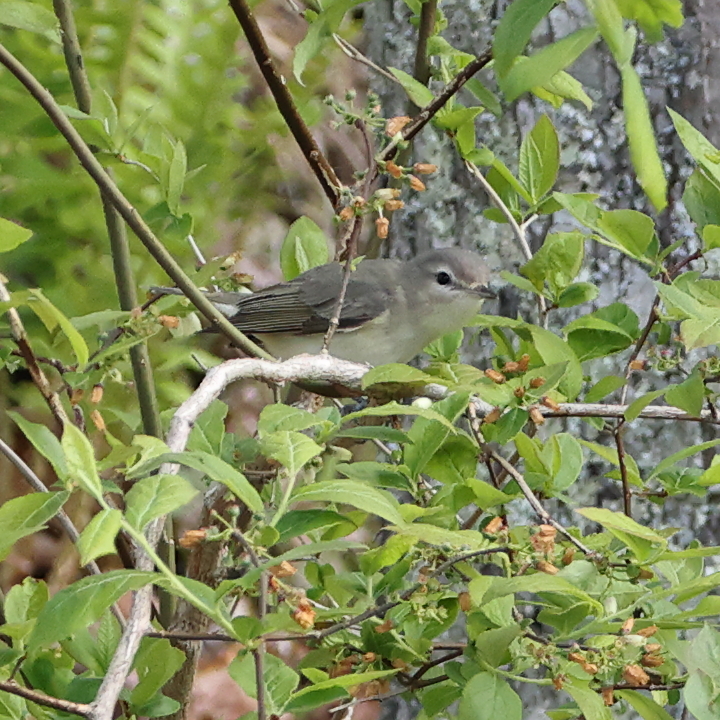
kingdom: Animalia
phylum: Chordata
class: Aves
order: Passeriformes
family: Vireonidae
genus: Vireo
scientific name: Vireo gilvus
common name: Warbling vireo
